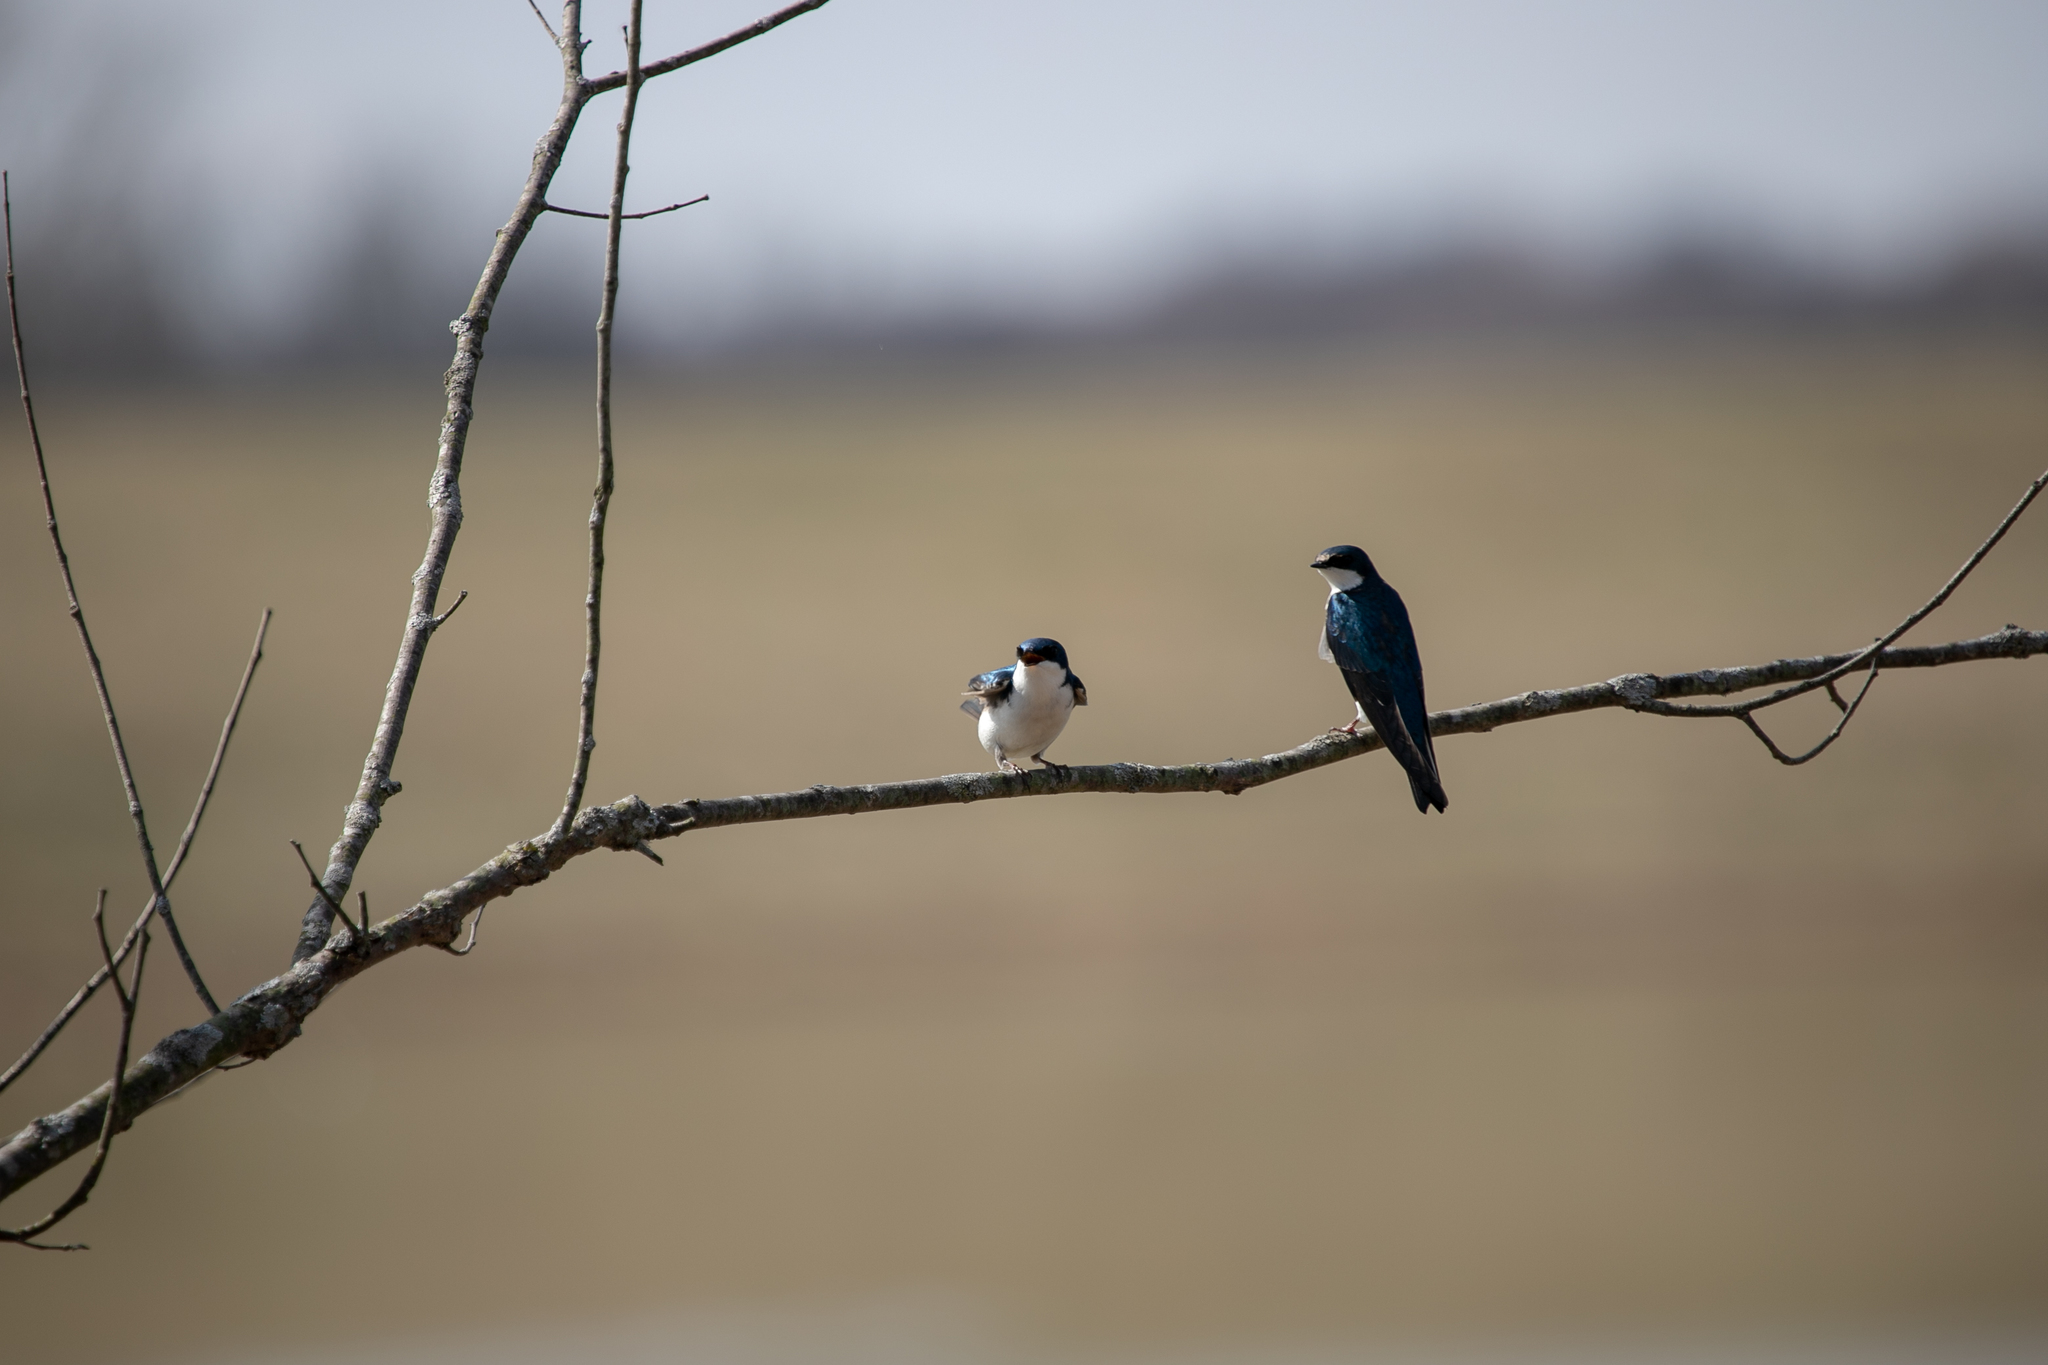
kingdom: Animalia
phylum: Chordata
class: Aves
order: Passeriformes
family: Hirundinidae
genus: Tachycineta
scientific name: Tachycineta bicolor
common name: Tree swallow
